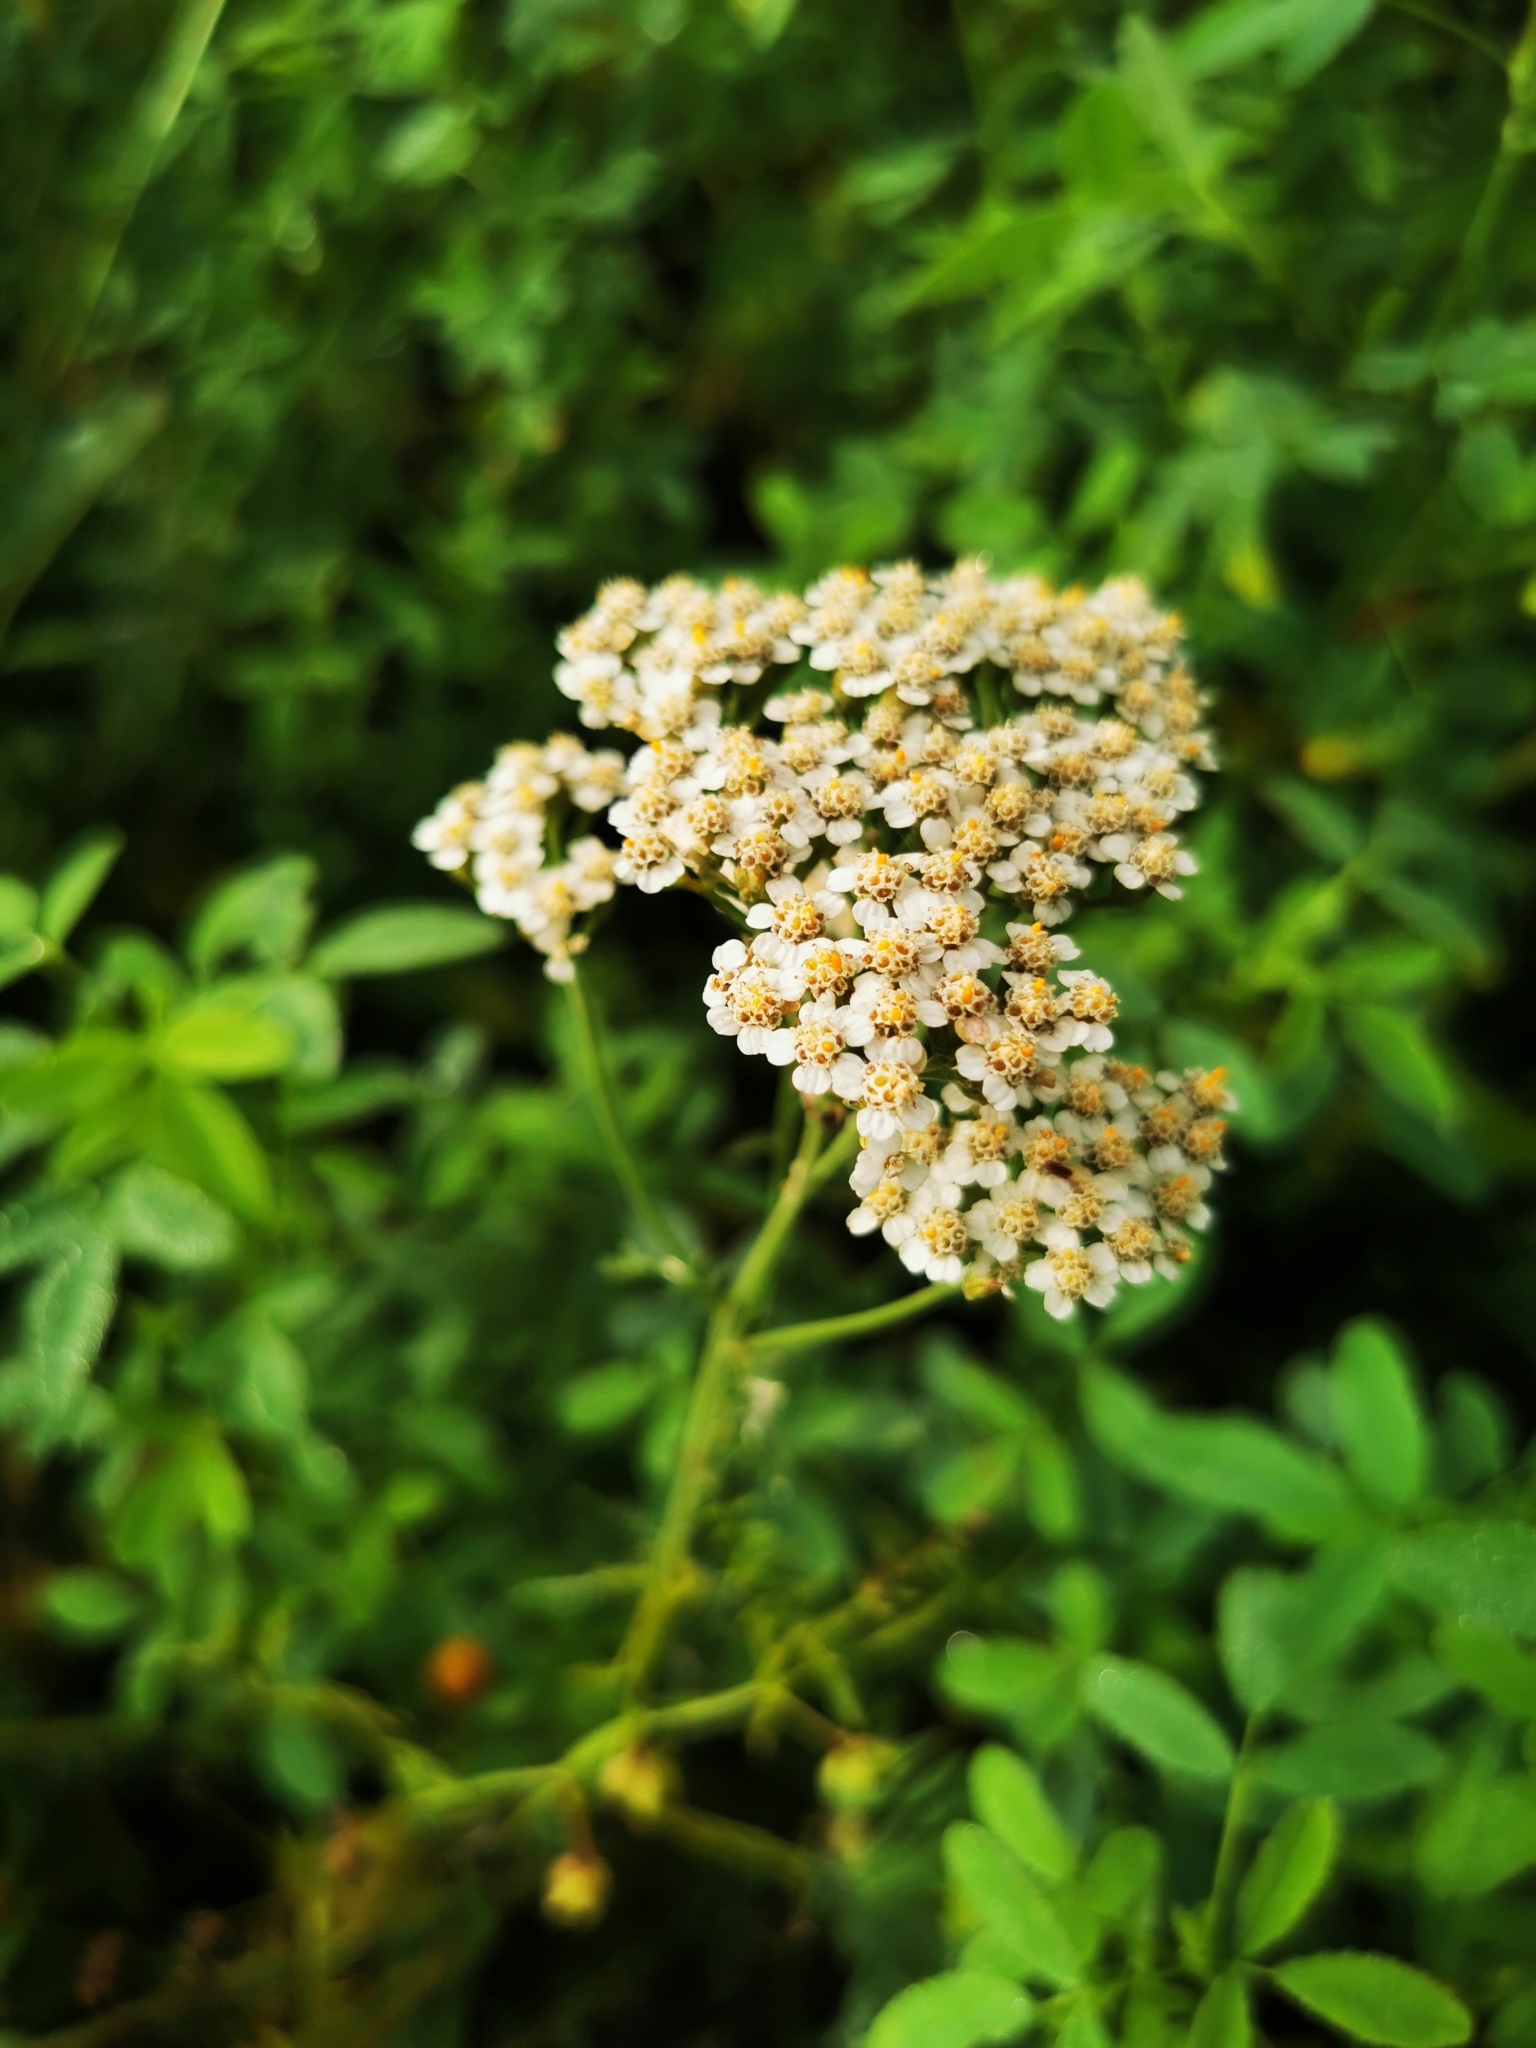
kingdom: Plantae
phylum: Tracheophyta
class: Magnoliopsida
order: Asterales
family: Asteraceae
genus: Achillea
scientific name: Achillea millefolium
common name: Yarrow
